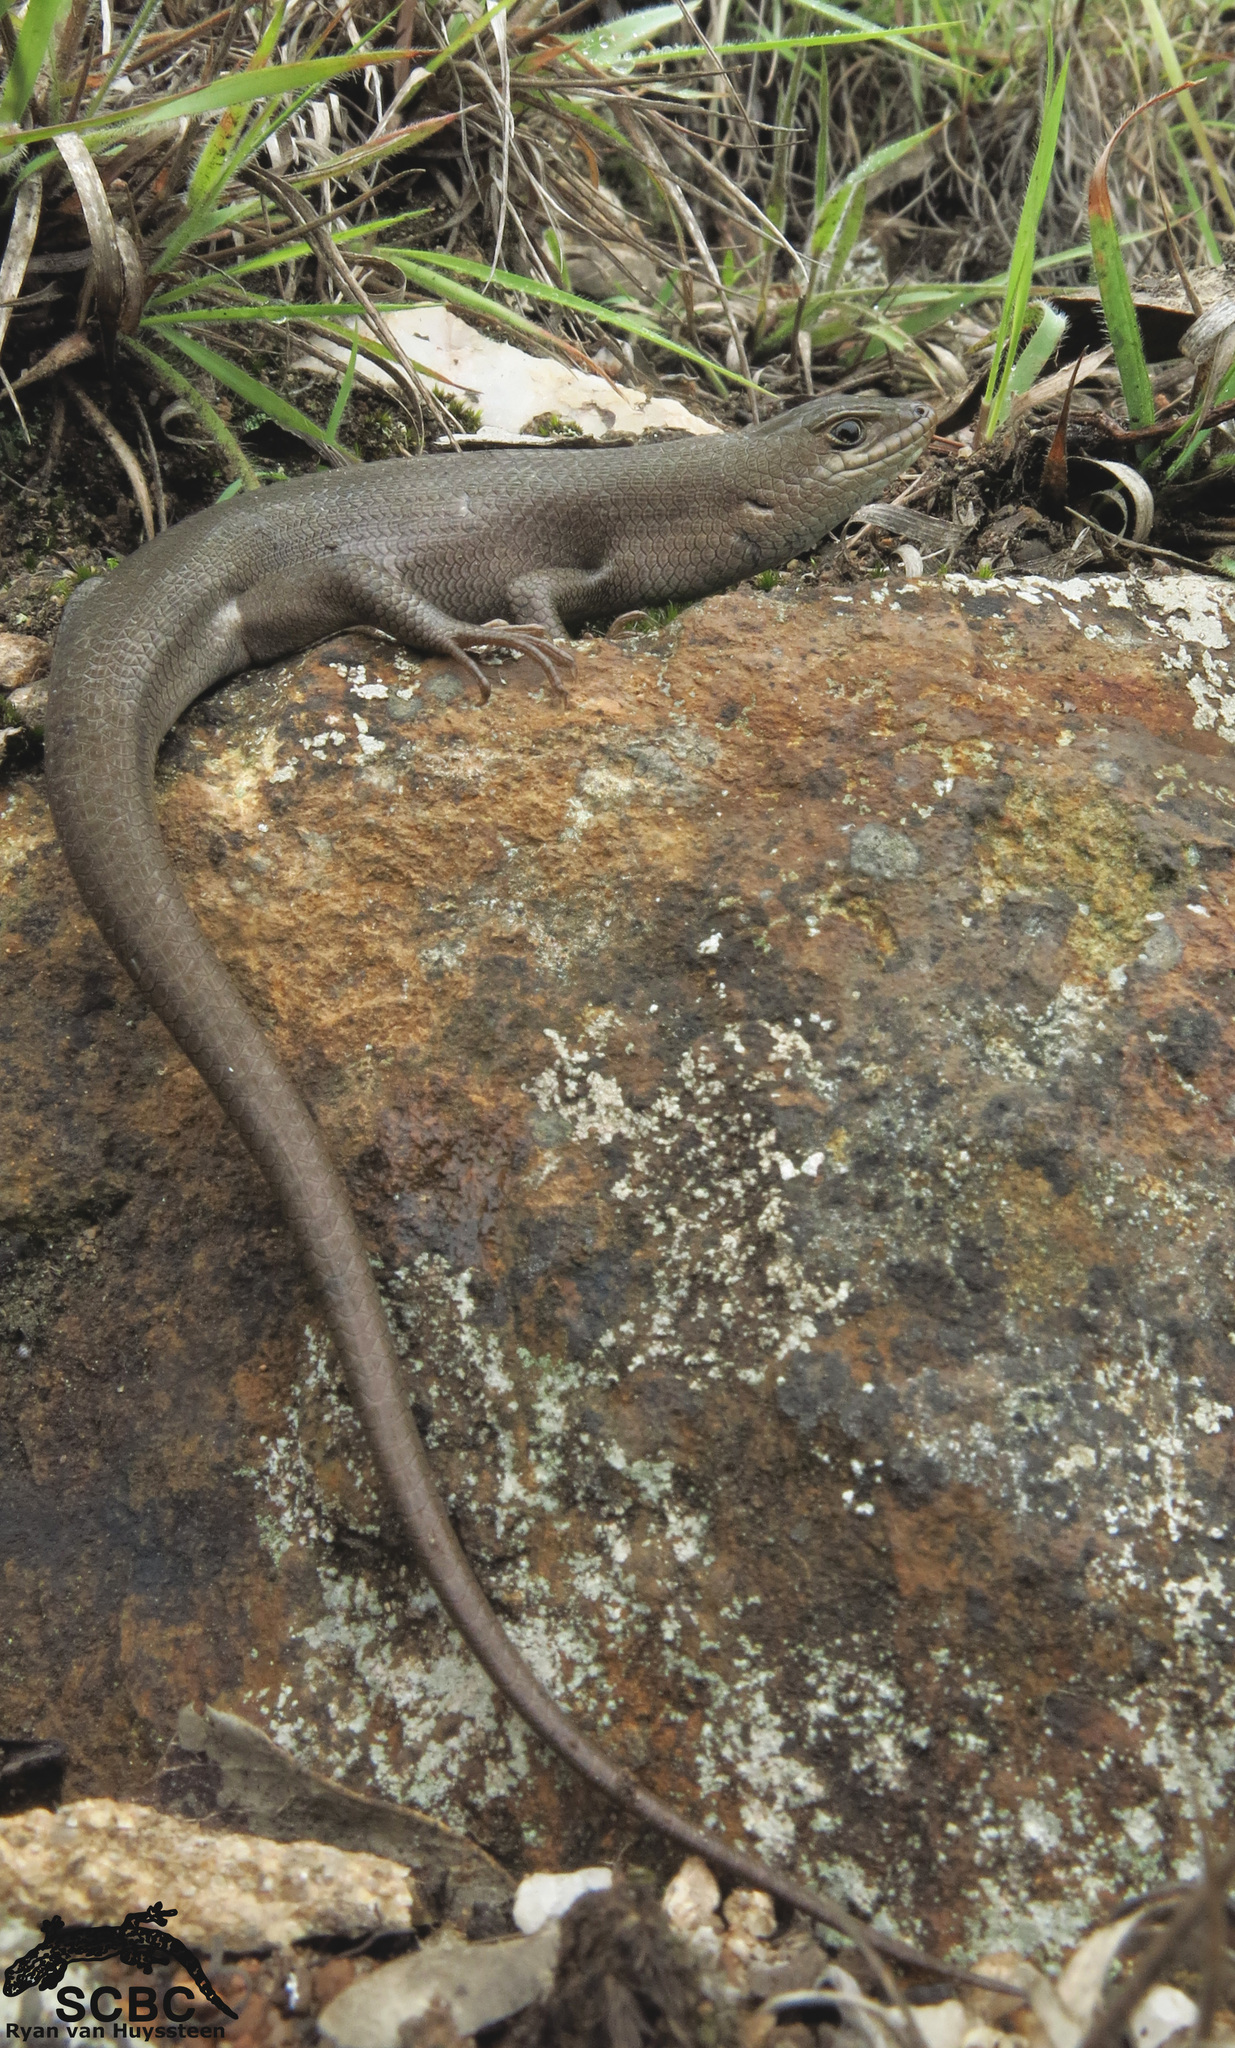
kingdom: Animalia
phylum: Chordata
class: Squamata
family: Scincidae
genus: Trachylepis
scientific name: Trachylepis capensis
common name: Cape skink
